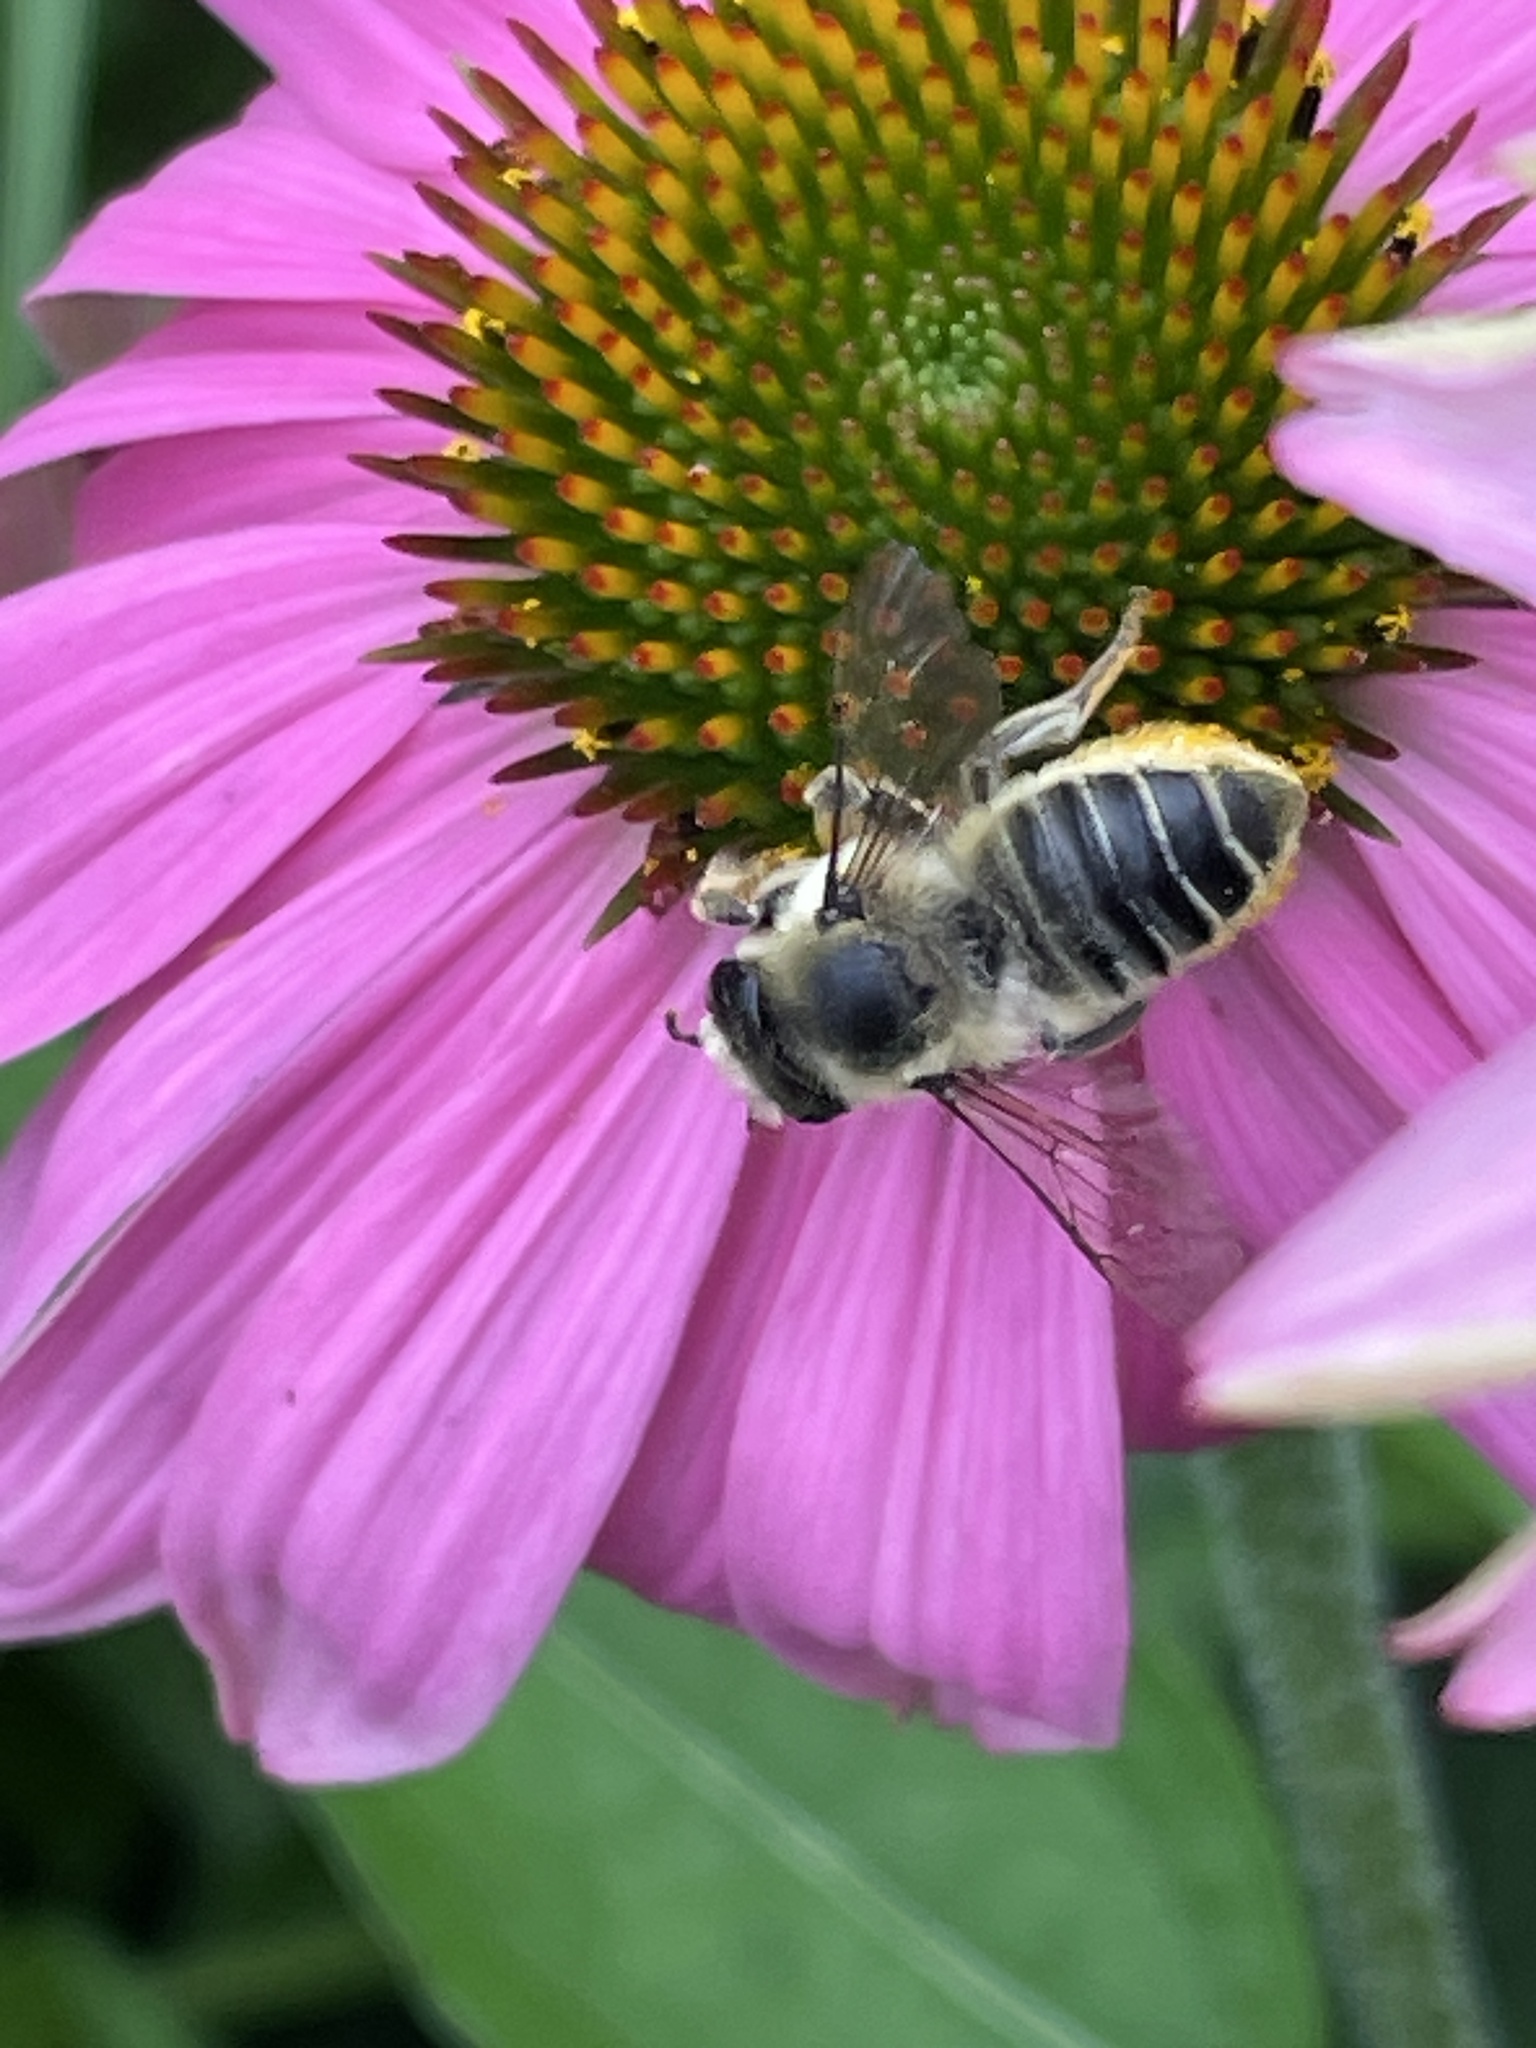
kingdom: Animalia
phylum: Arthropoda
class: Insecta
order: Hymenoptera
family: Megachilidae
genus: Megachile
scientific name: Megachile latimanus
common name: Leafcutting bee
